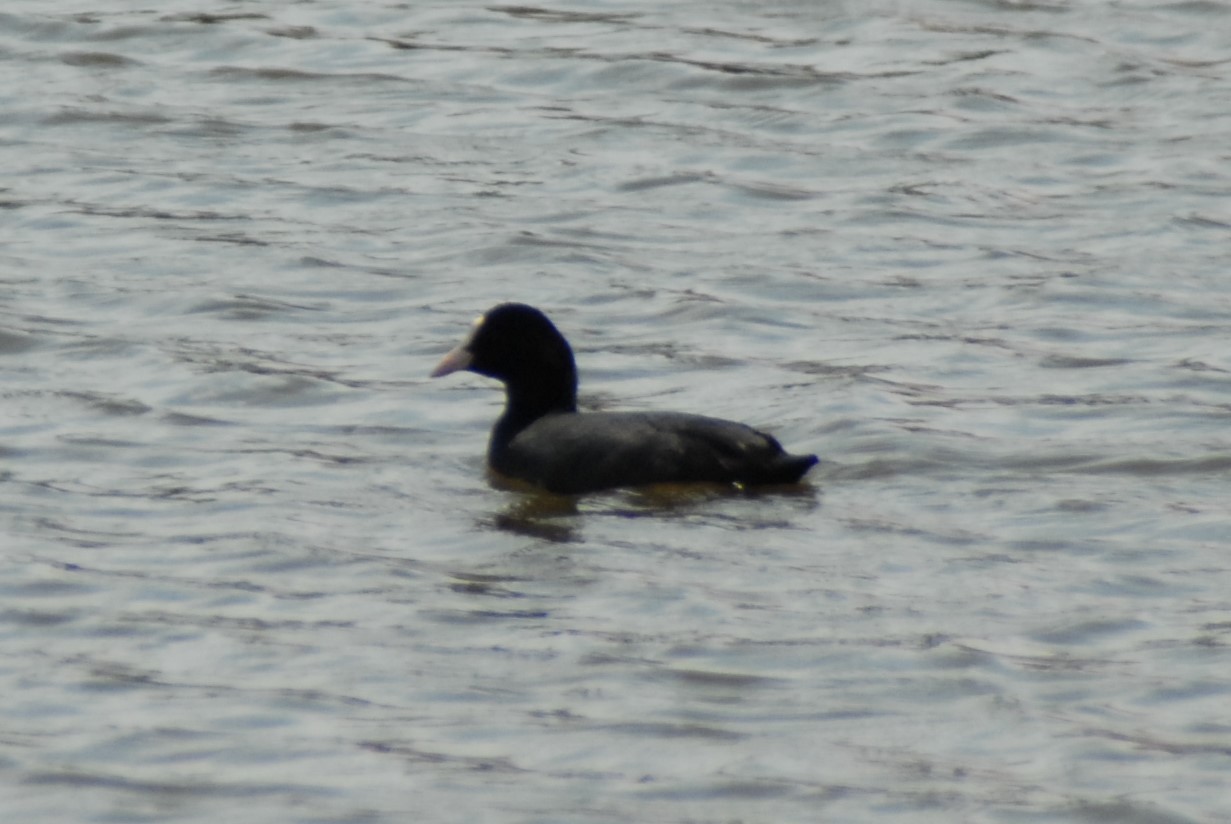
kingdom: Animalia
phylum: Chordata
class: Aves
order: Gruiformes
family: Rallidae
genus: Fulica
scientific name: Fulica atra
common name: Eurasian coot
